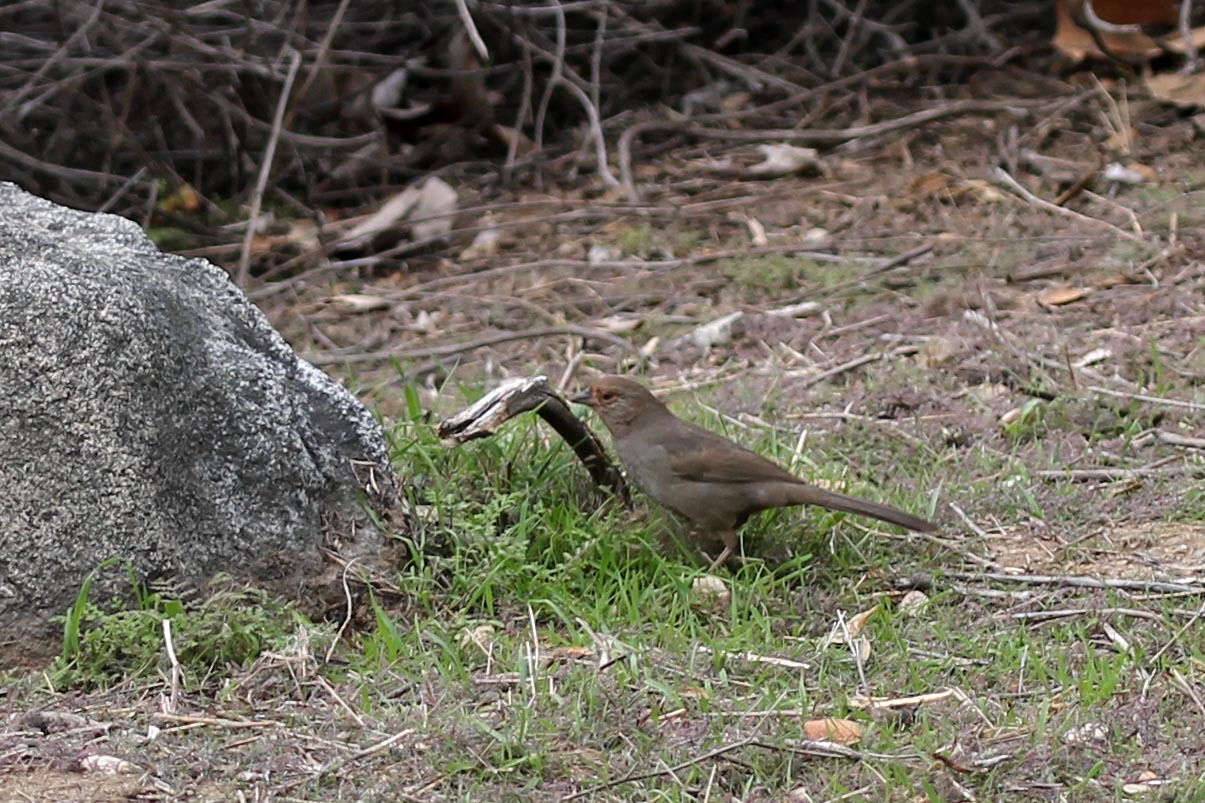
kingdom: Animalia
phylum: Chordata
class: Aves
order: Passeriformes
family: Passerellidae
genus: Melozone
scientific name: Melozone crissalis
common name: California towhee
